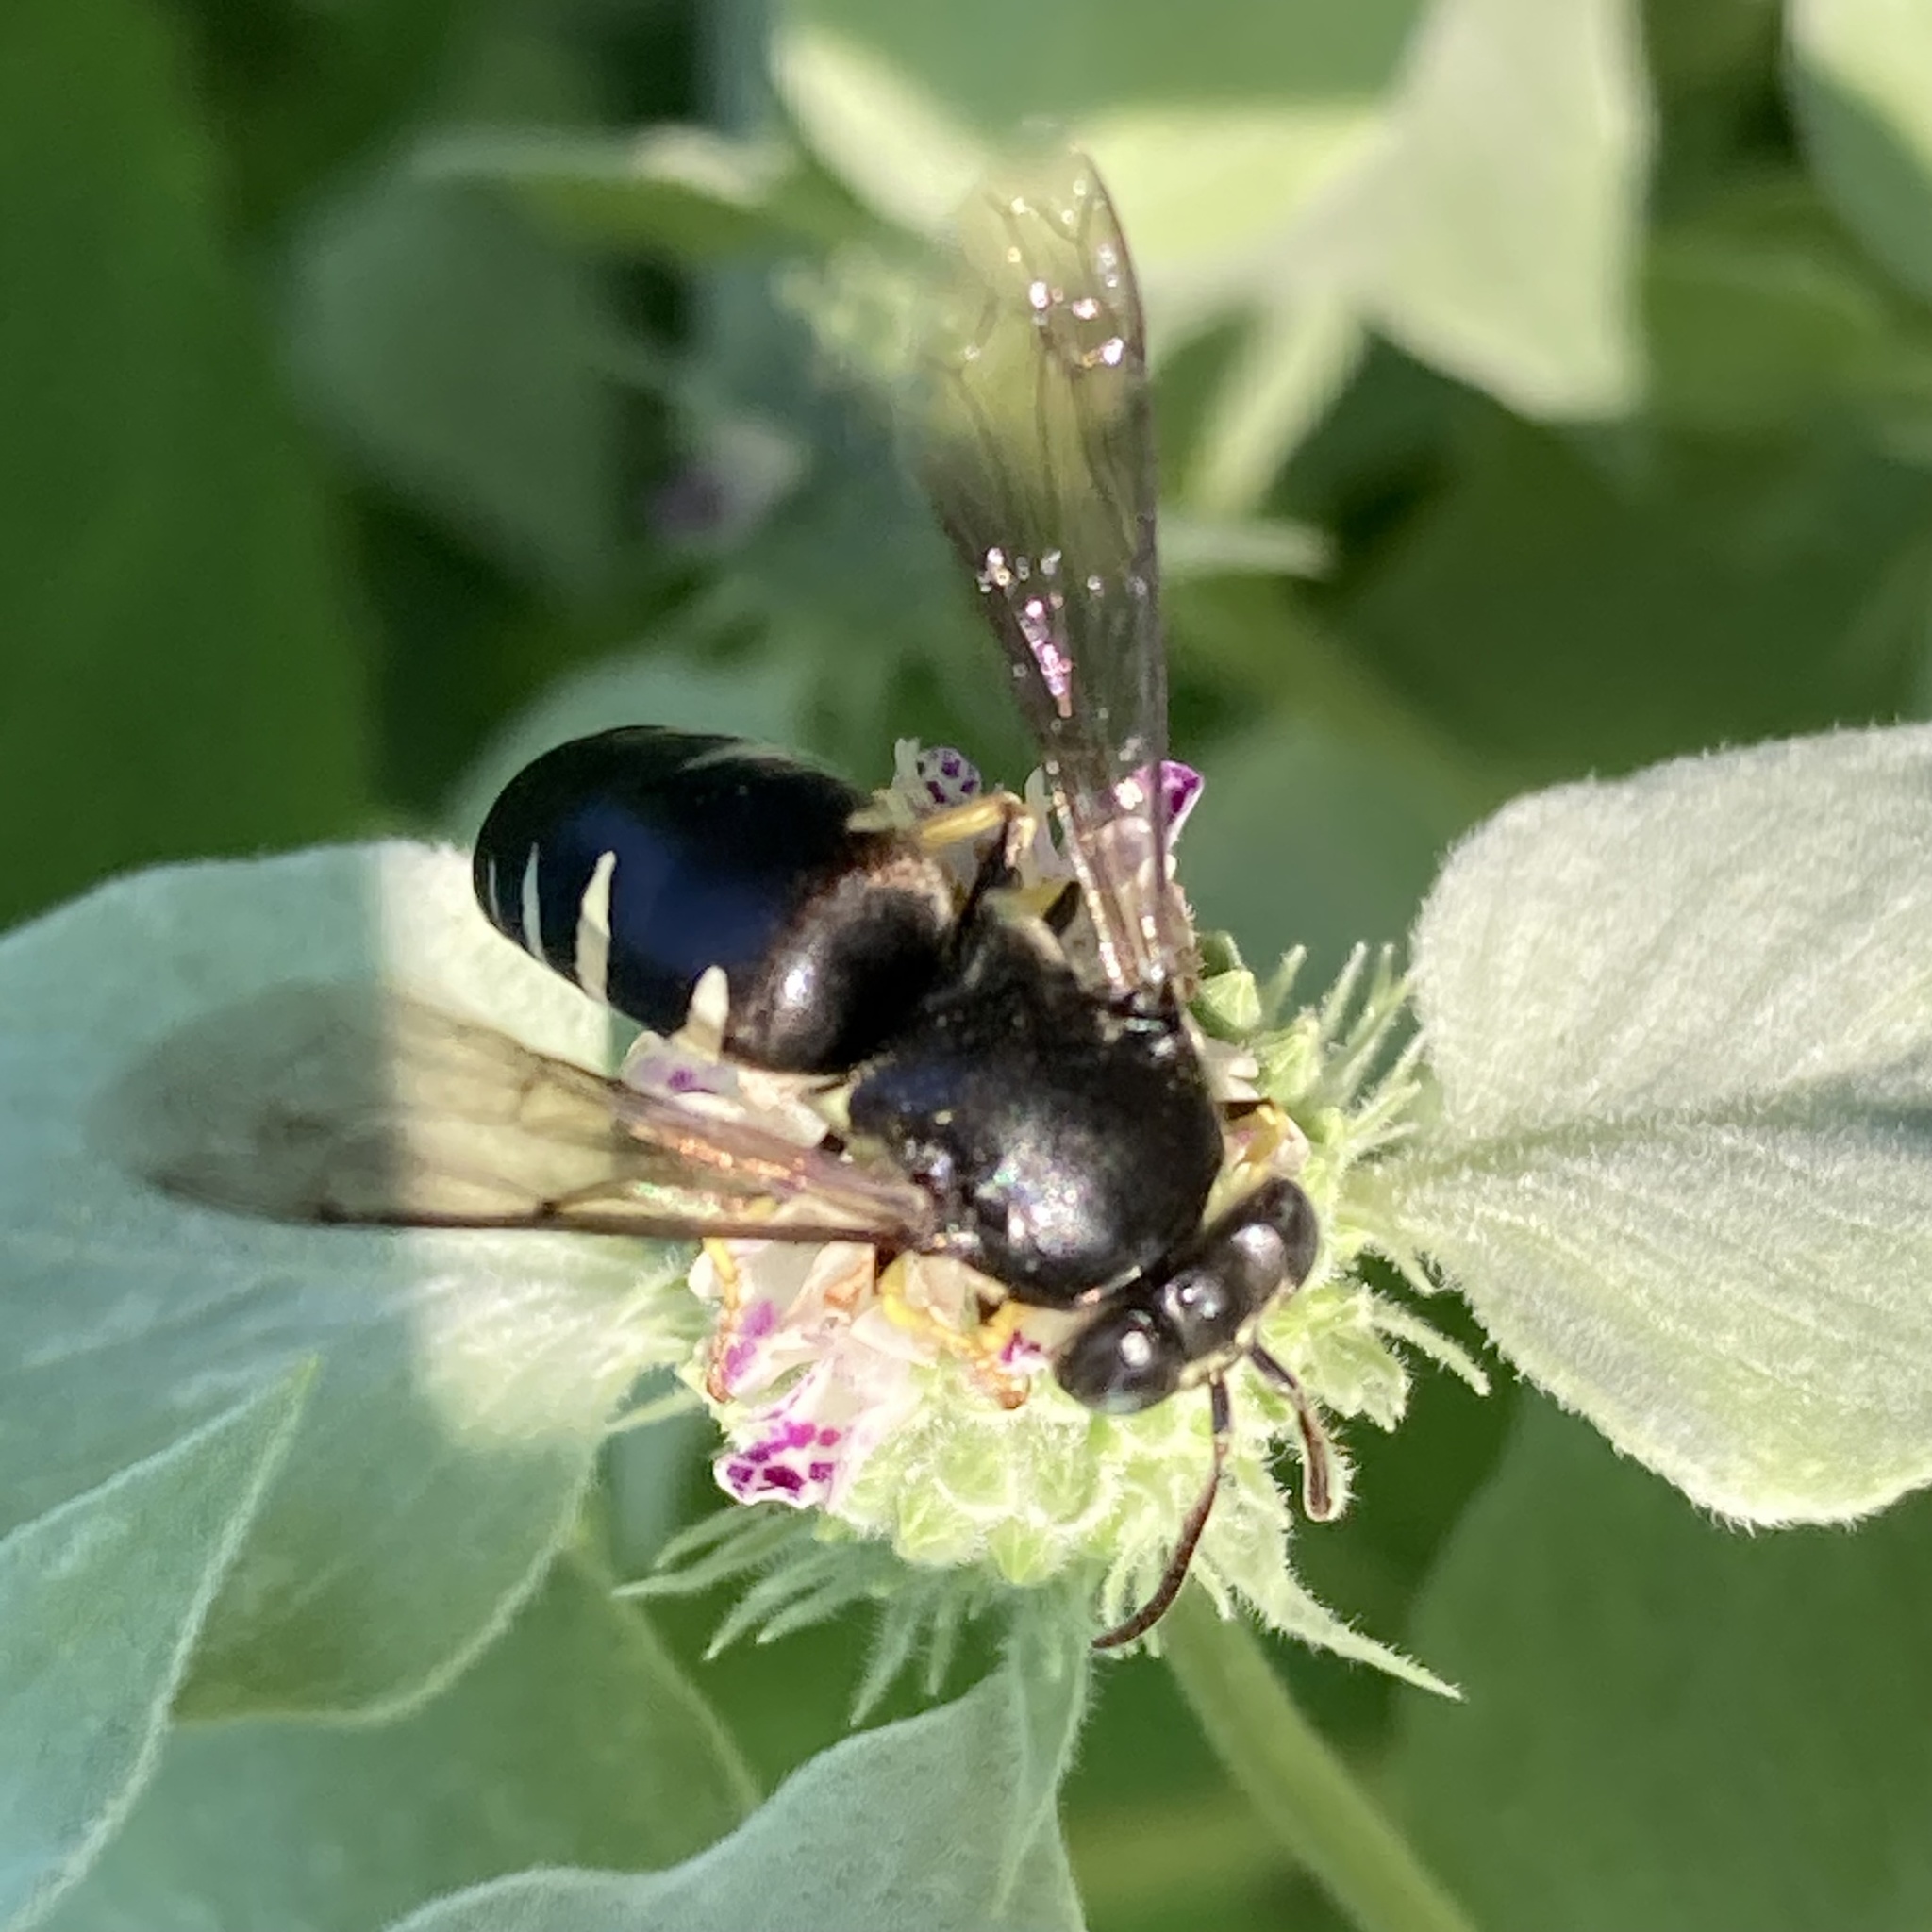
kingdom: Animalia
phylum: Arthropoda
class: Insecta
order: Hymenoptera
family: Crabronidae
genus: Bicyrtes
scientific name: Bicyrtes quadrifasciatus
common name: Four-banded stink bug hunter wasp
